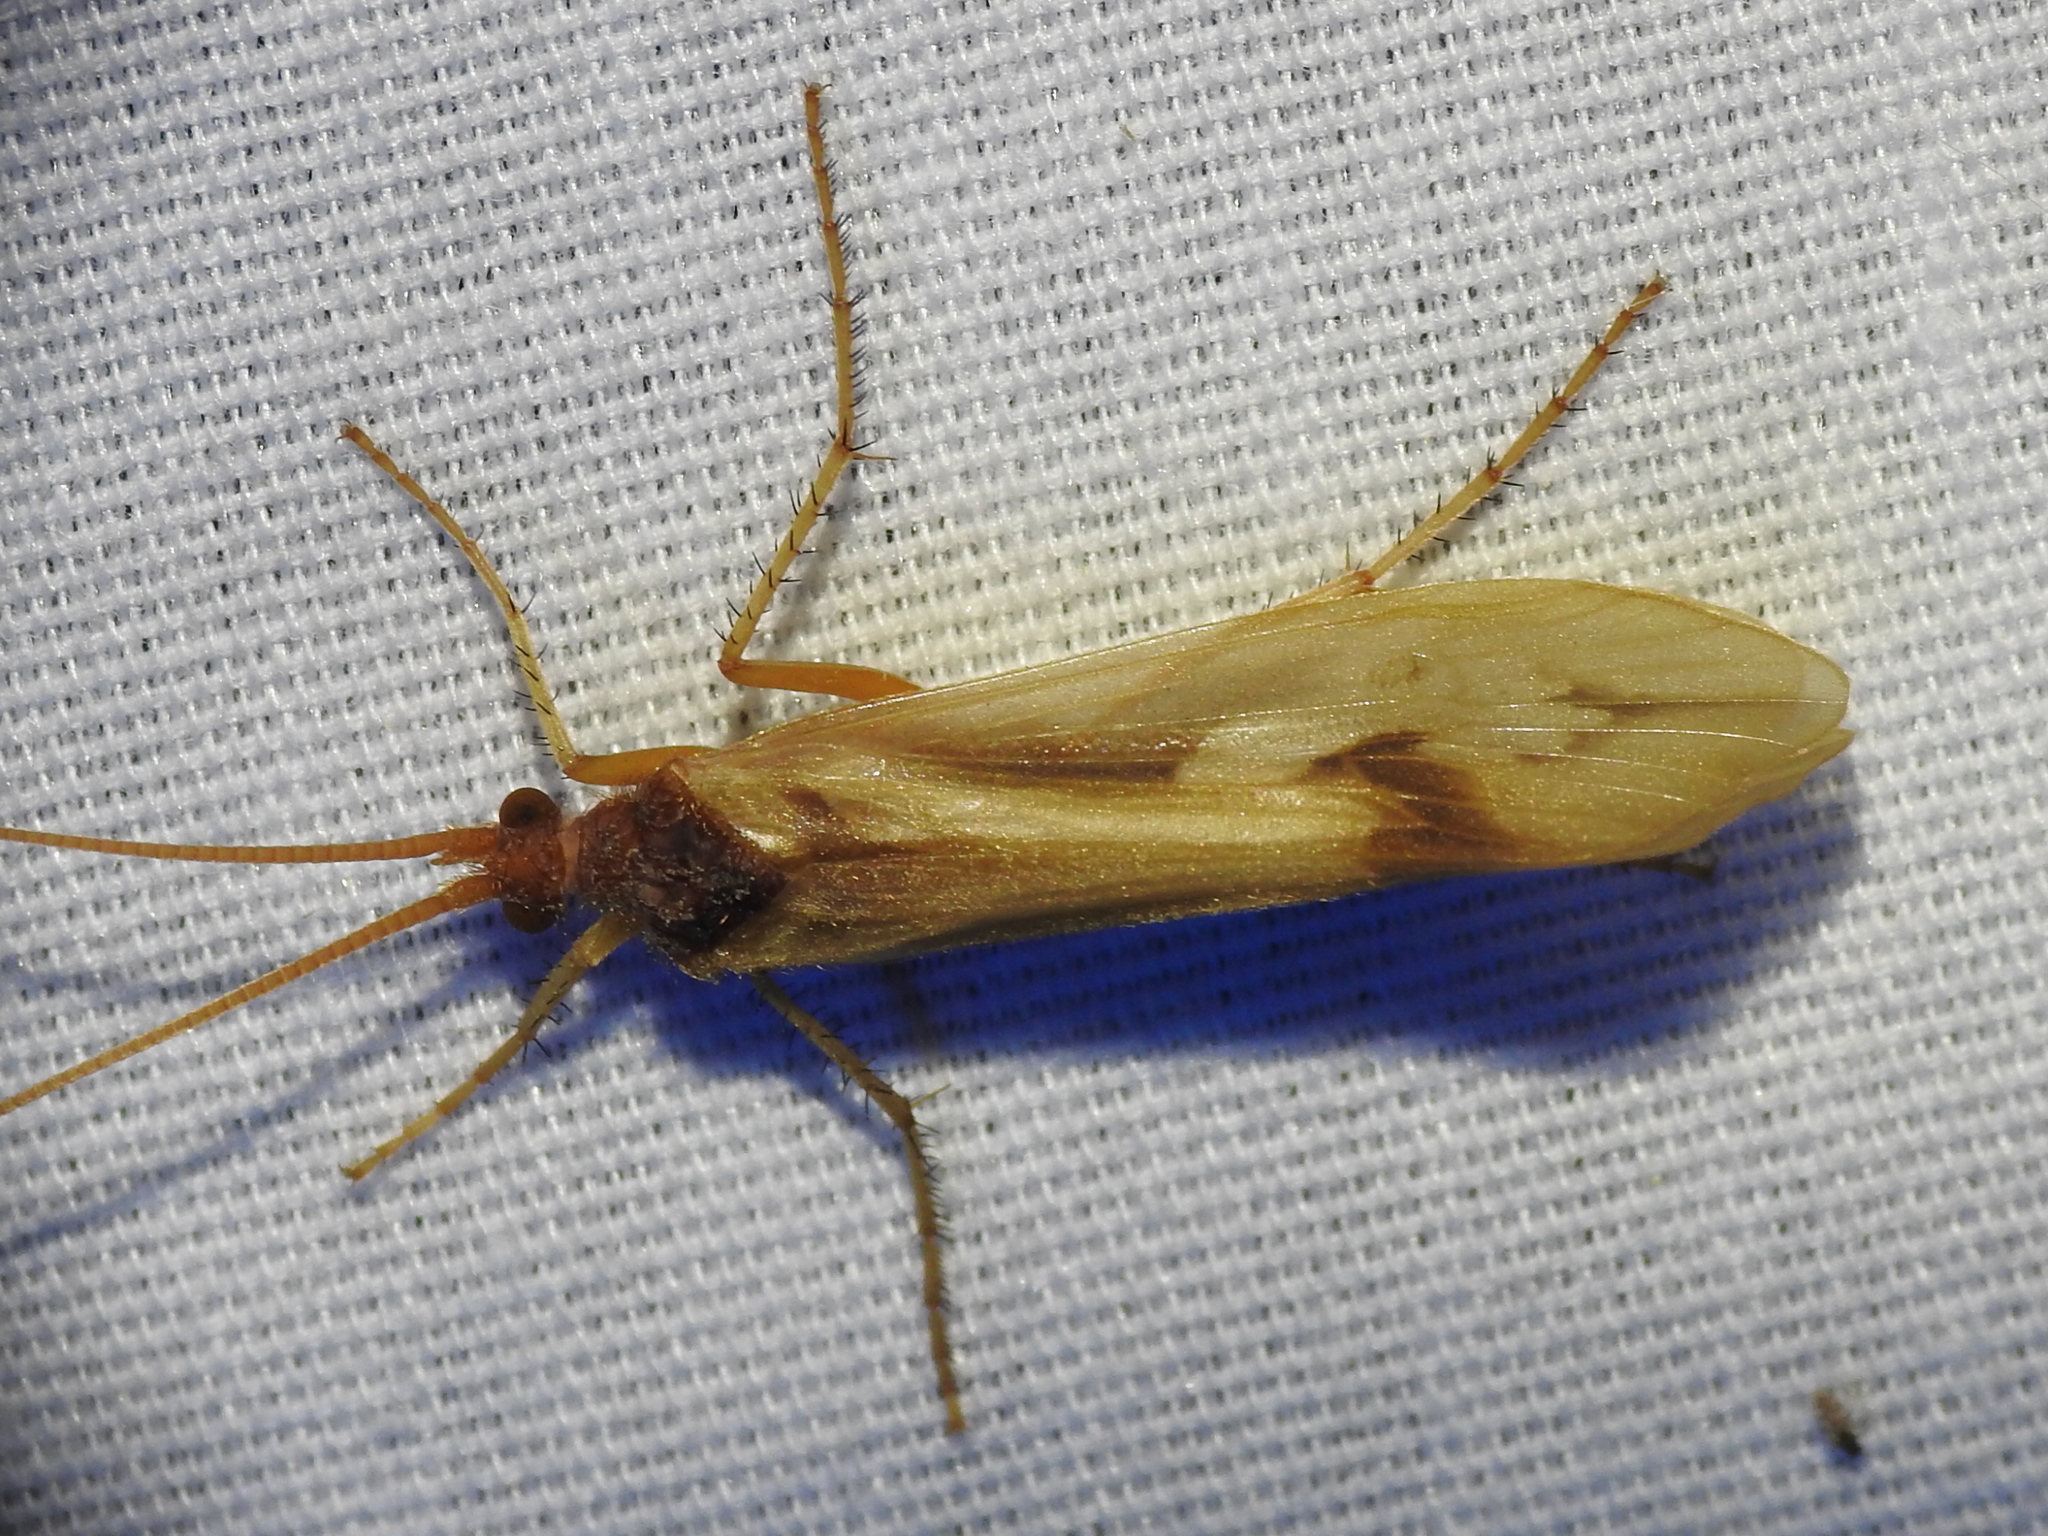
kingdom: Animalia
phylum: Arthropoda
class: Insecta
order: Trichoptera
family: Limnephilidae
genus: Platycentropus
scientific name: Platycentropus radiatus
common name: Chocolate-and-cream sedge
